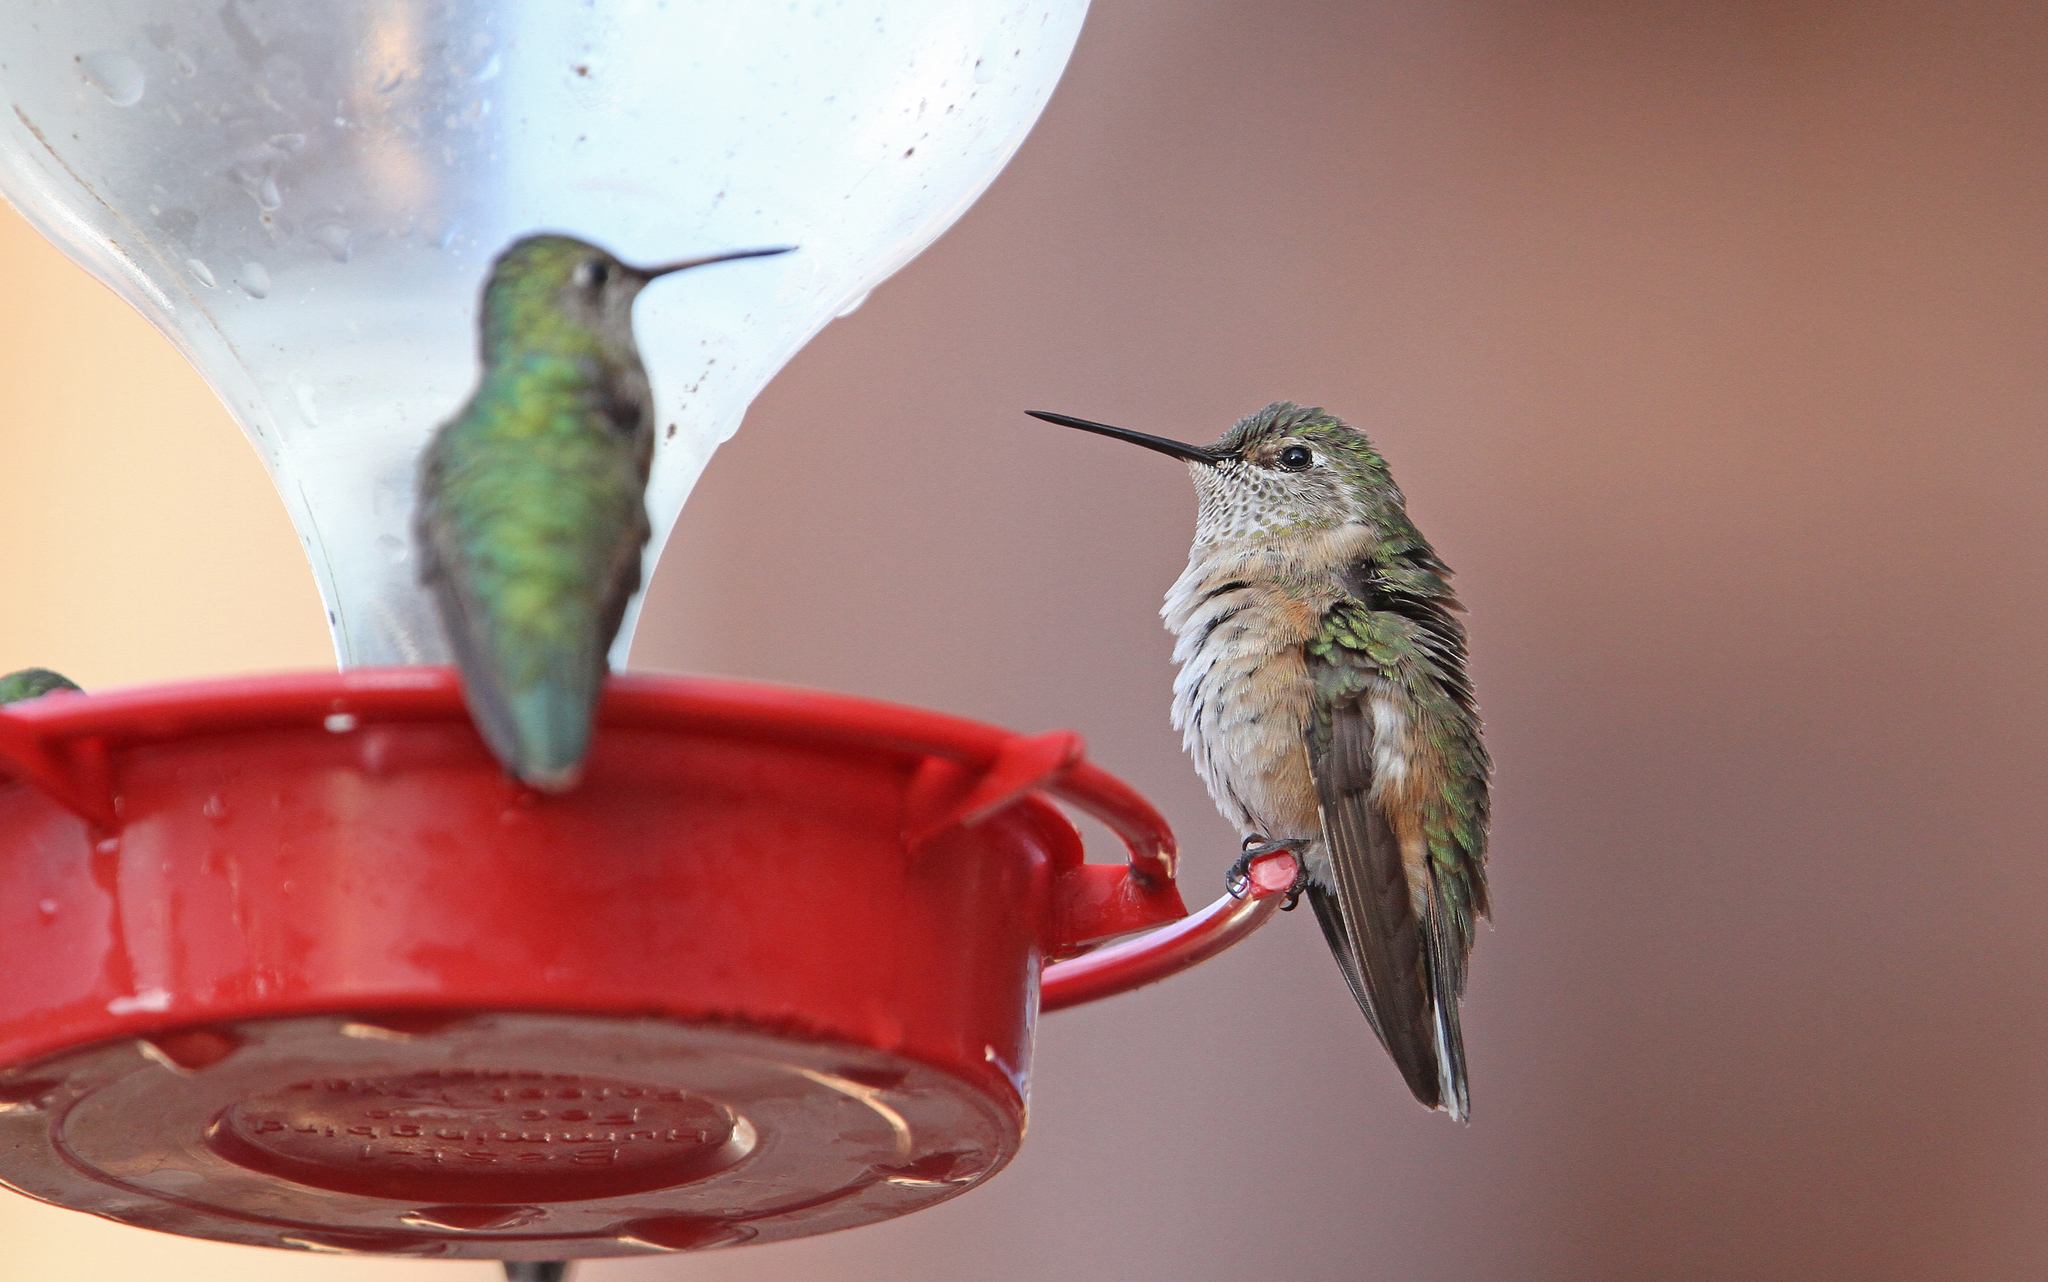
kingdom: Animalia
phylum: Chordata
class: Aves
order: Apodiformes
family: Trochilidae
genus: Selasphorus
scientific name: Selasphorus platycercus
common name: Broad-tailed hummingbird
